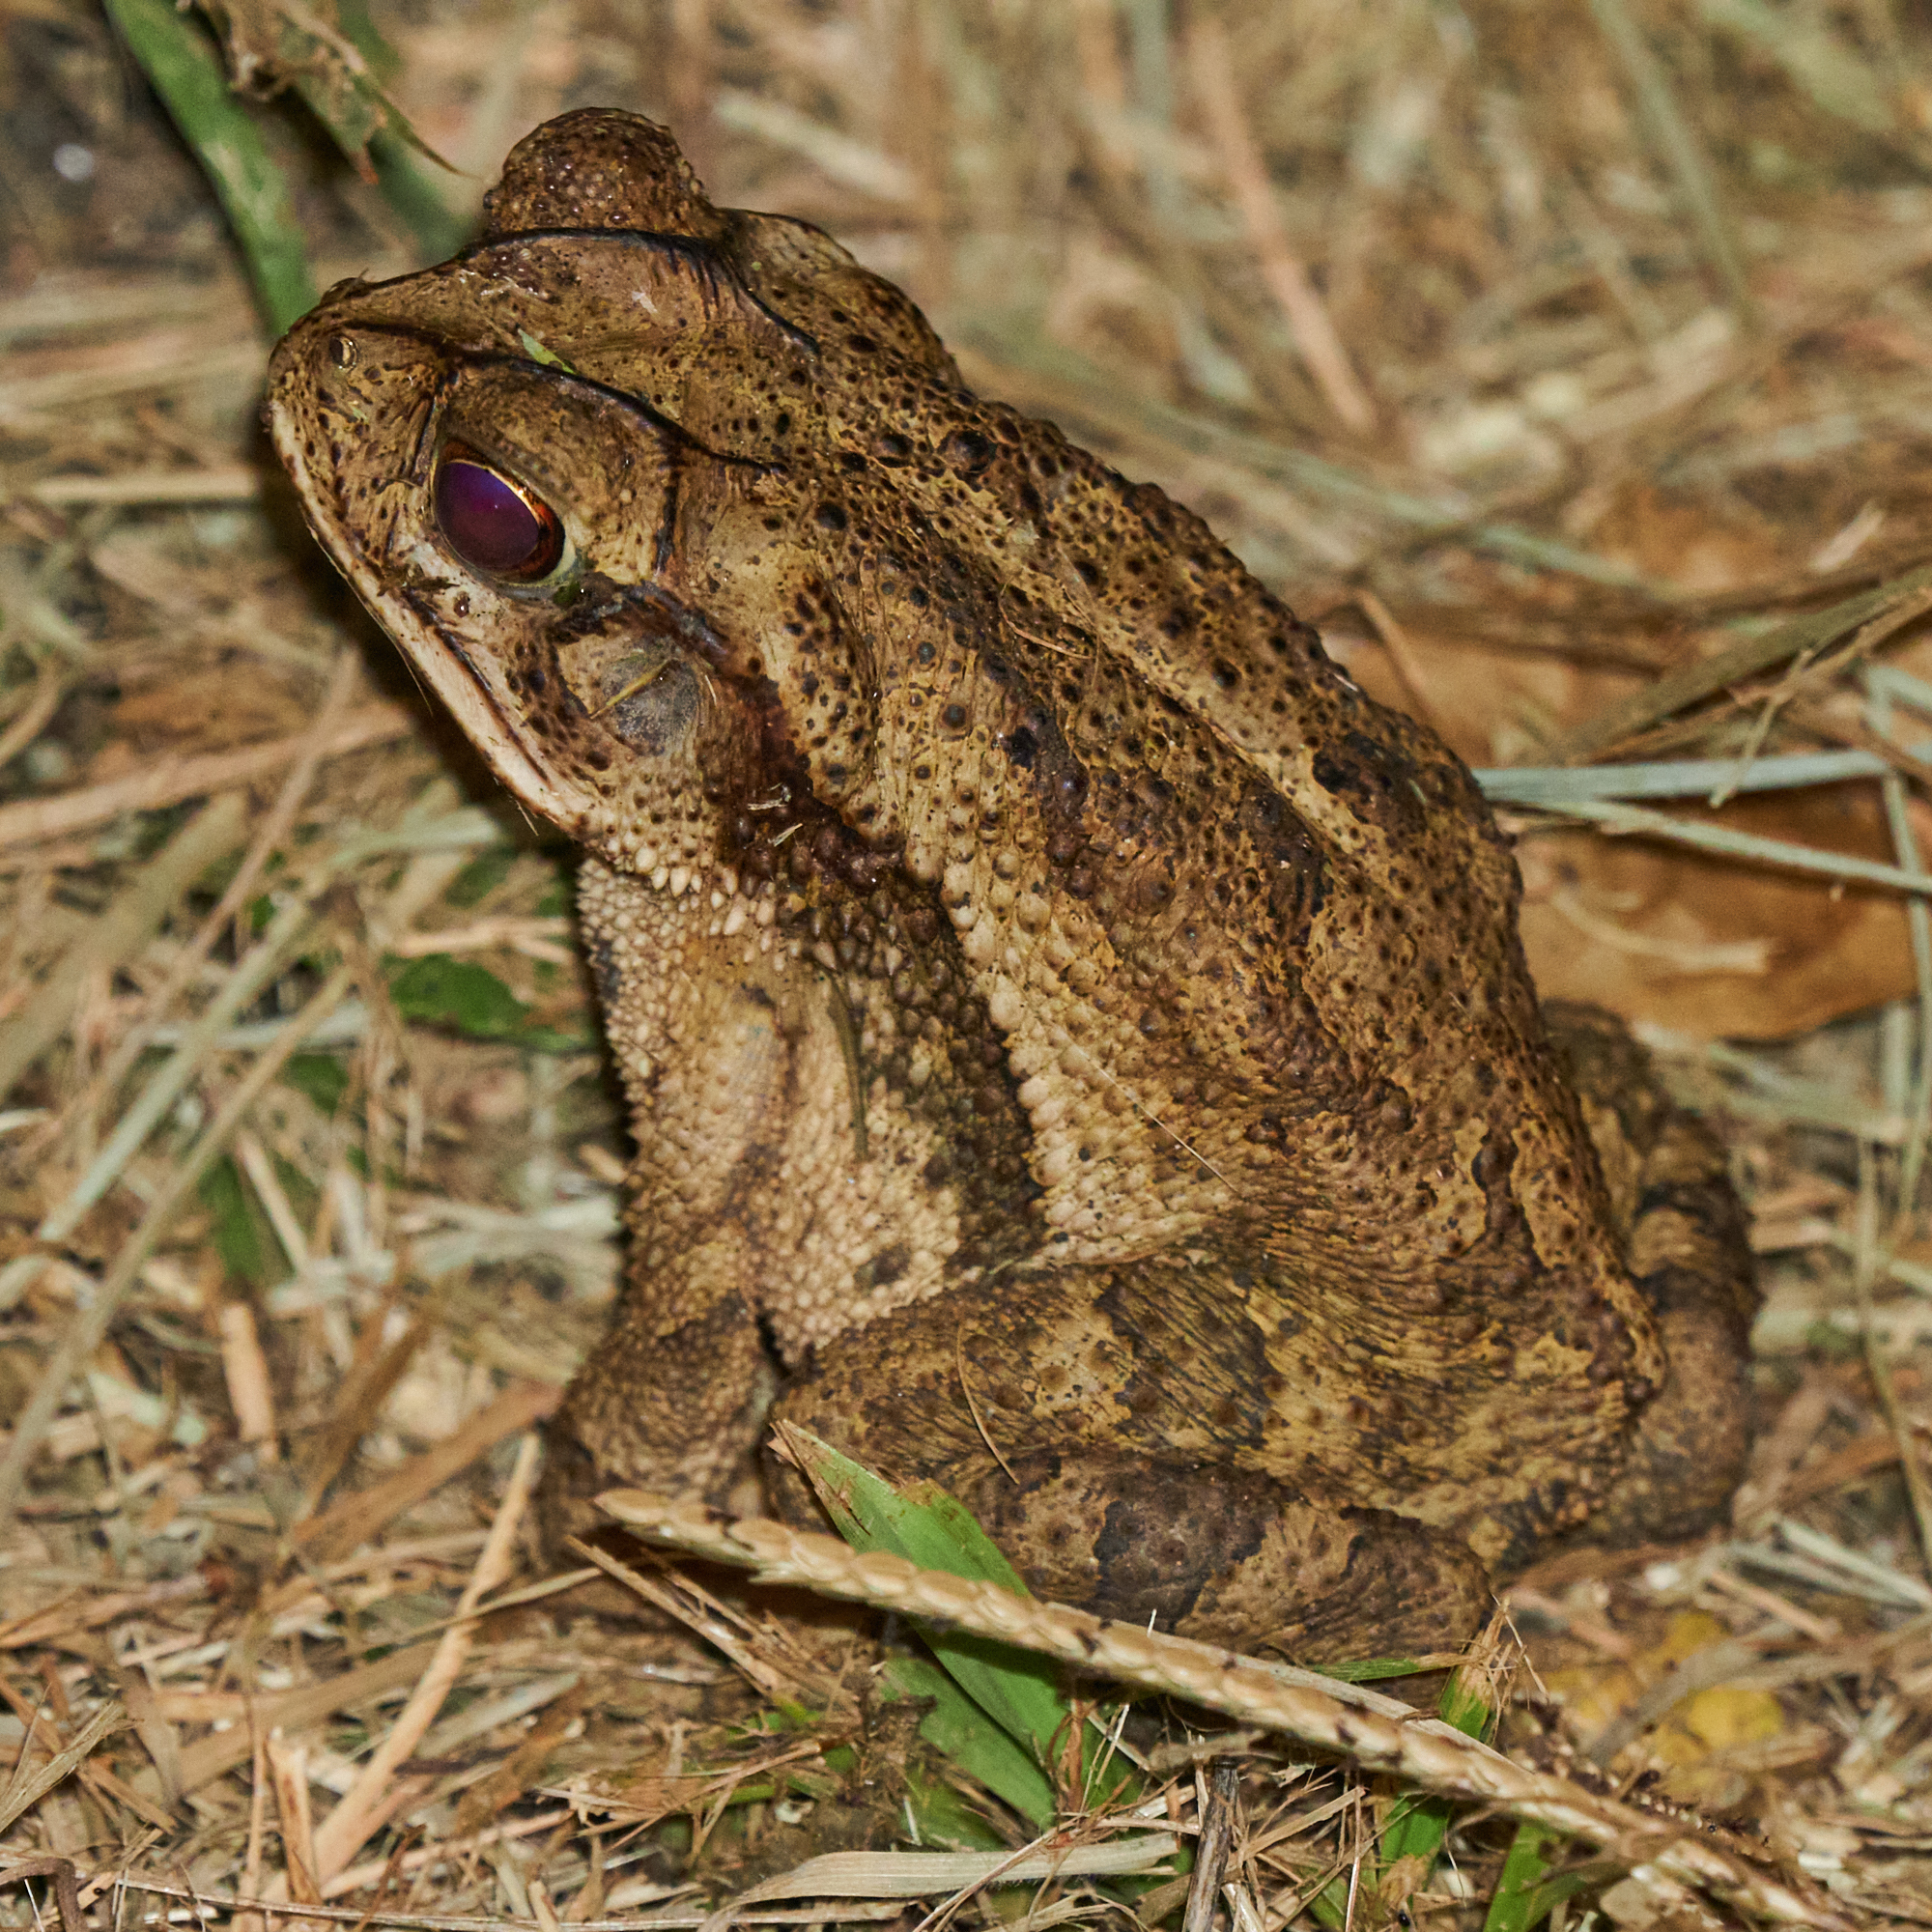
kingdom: Animalia
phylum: Chordata
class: Amphibia
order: Anura
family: Bufonidae
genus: Incilius
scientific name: Incilius valliceps
